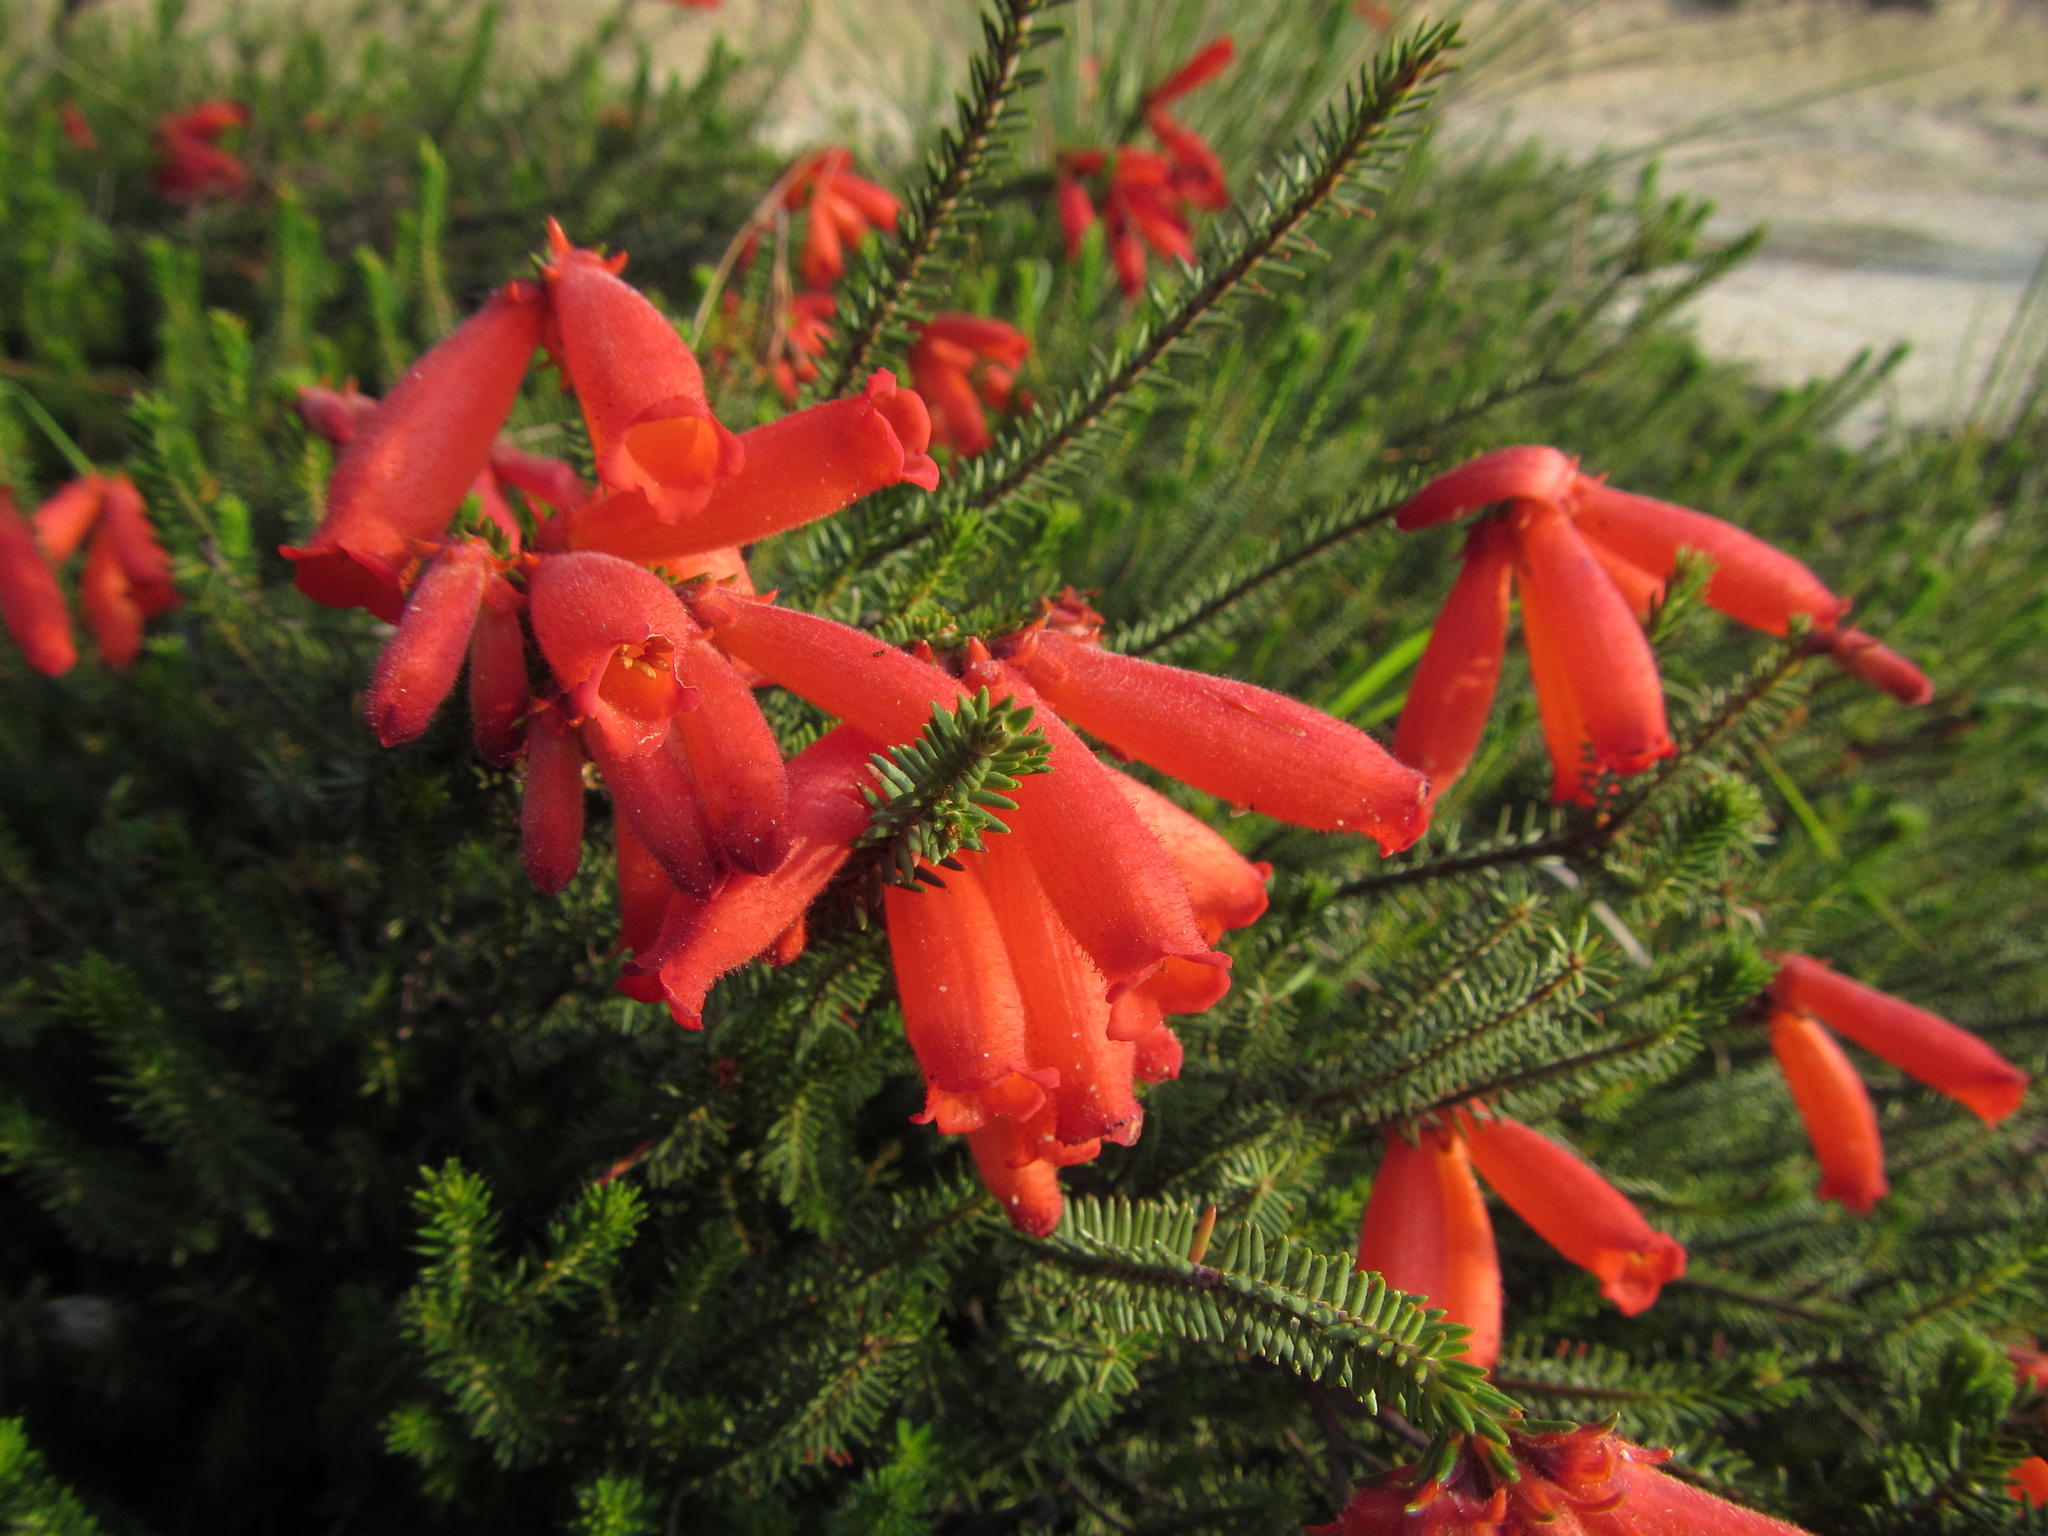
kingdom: Plantae
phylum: Tracheophyta
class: Magnoliopsida
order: Ericales
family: Ericaceae
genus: Erica
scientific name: Erica cerinthoides
